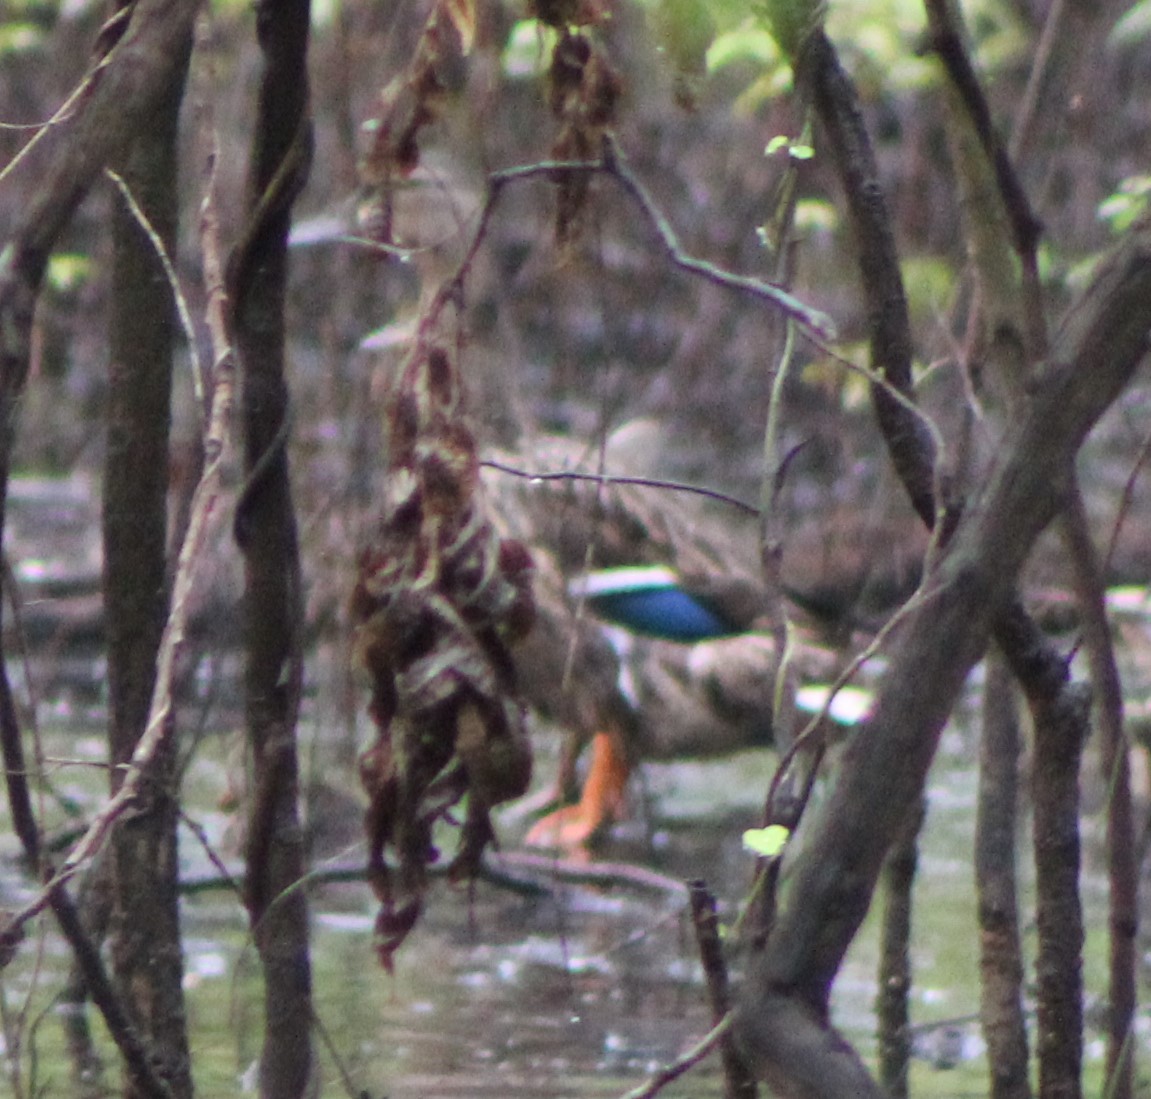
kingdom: Animalia
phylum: Chordata
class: Aves
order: Anseriformes
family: Anatidae
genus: Anas
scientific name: Anas platyrhynchos
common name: Mallard
